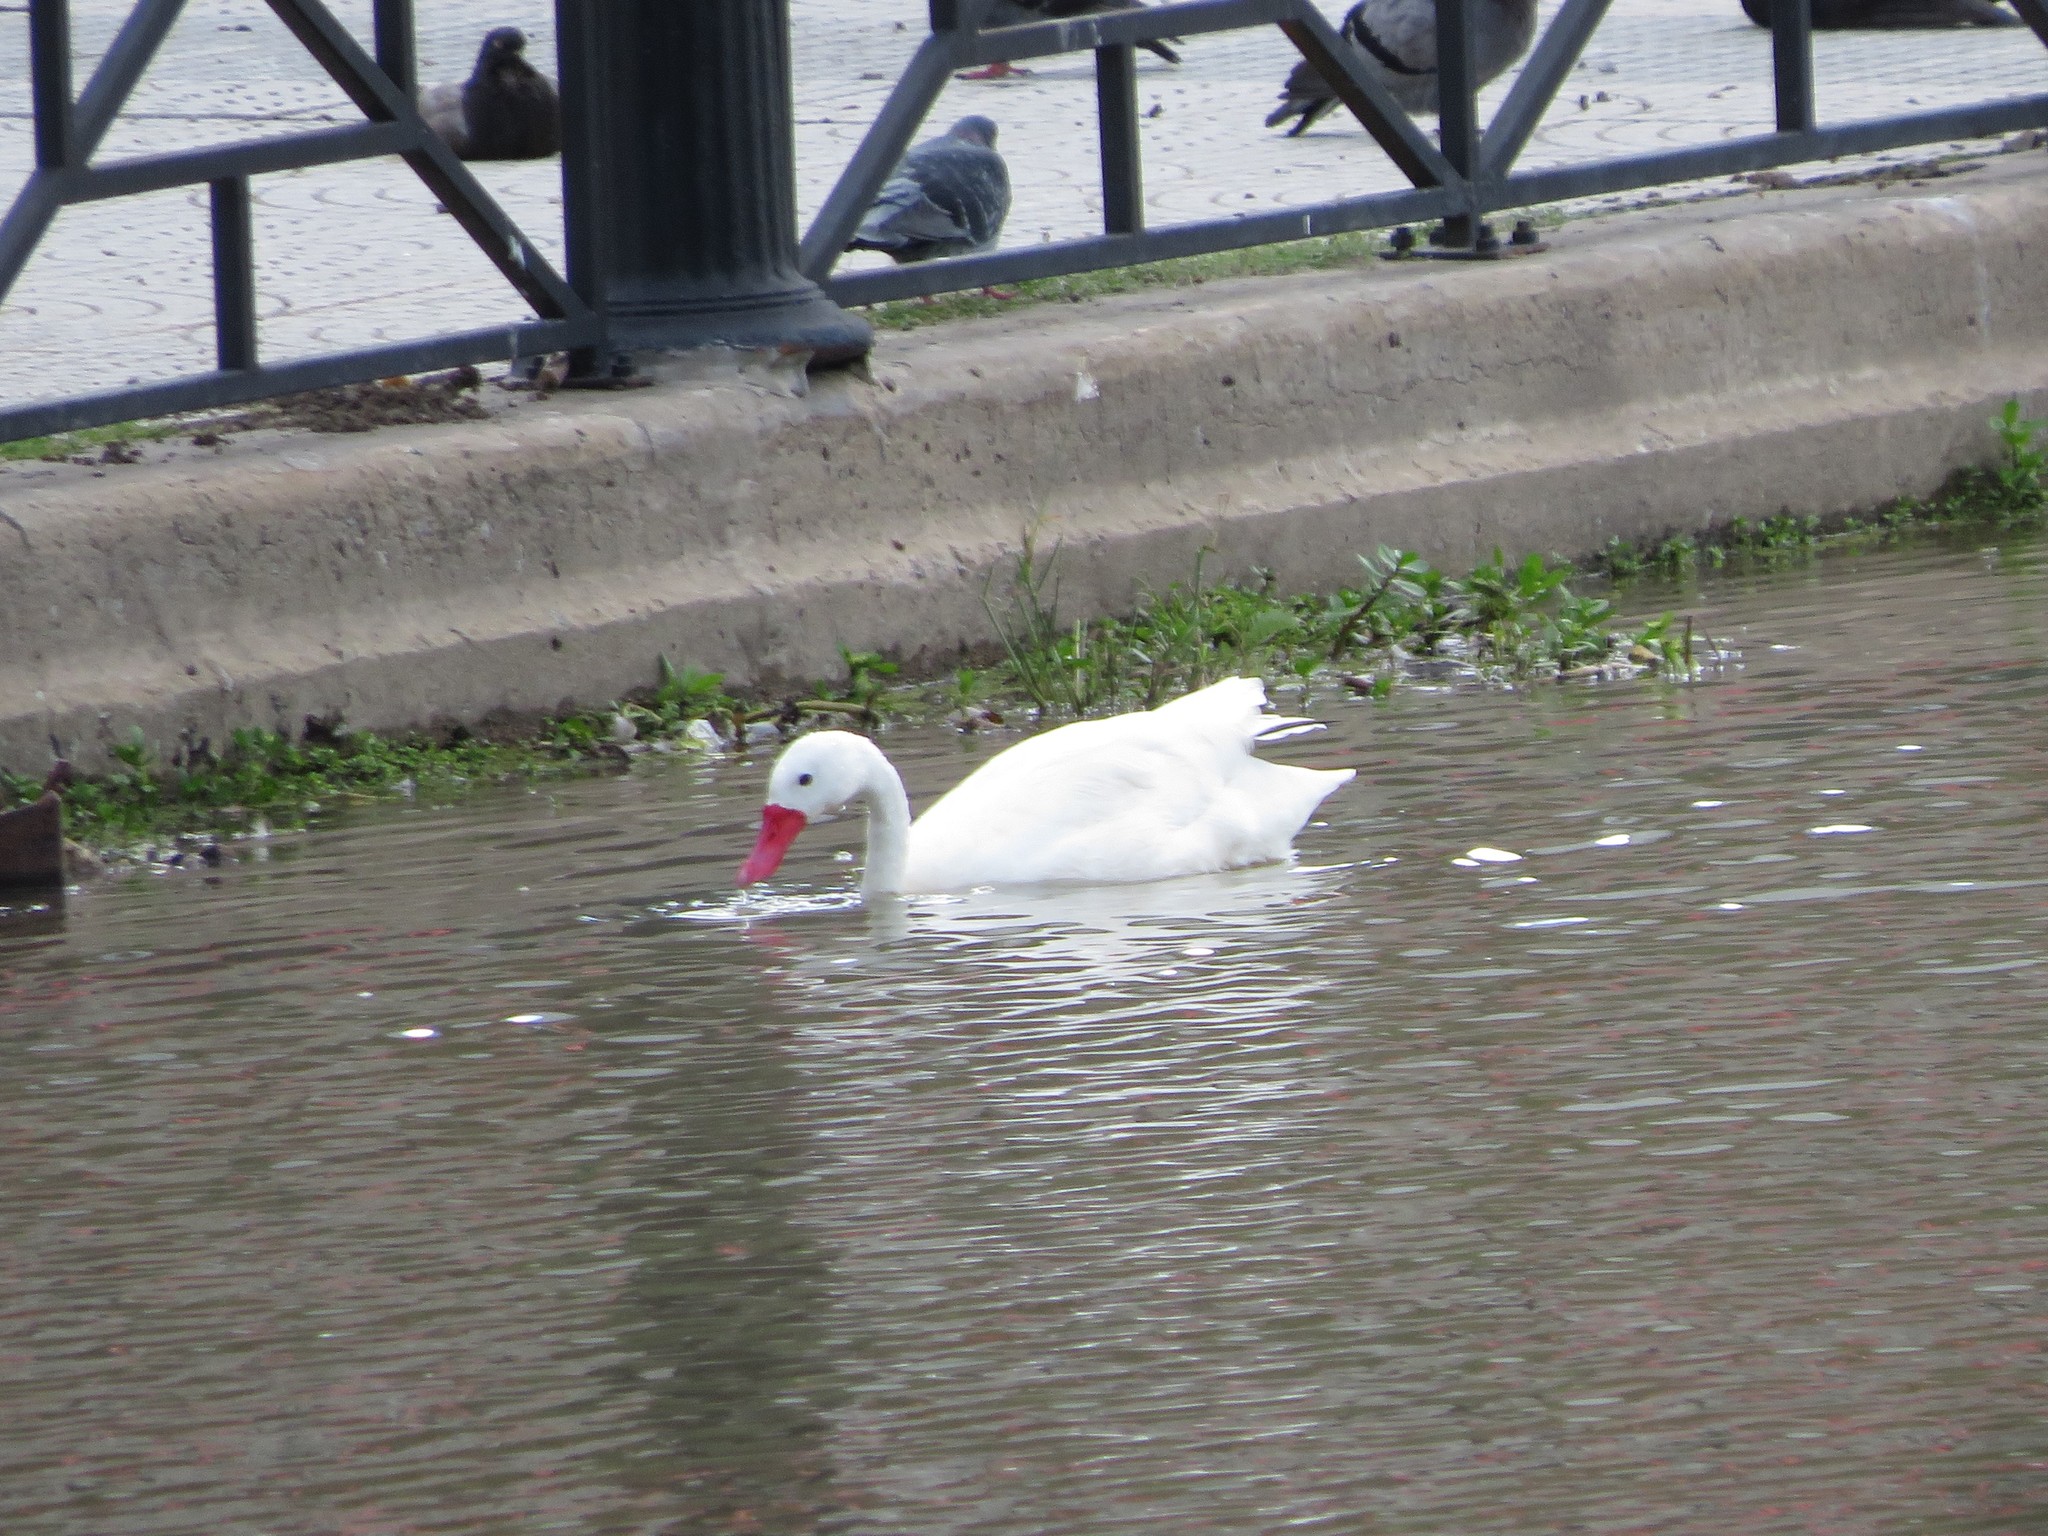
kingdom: Animalia
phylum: Chordata
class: Aves
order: Anseriformes
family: Anatidae
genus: Coscoroba
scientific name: Coscoroba coscoroba
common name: Coscoroba swan
